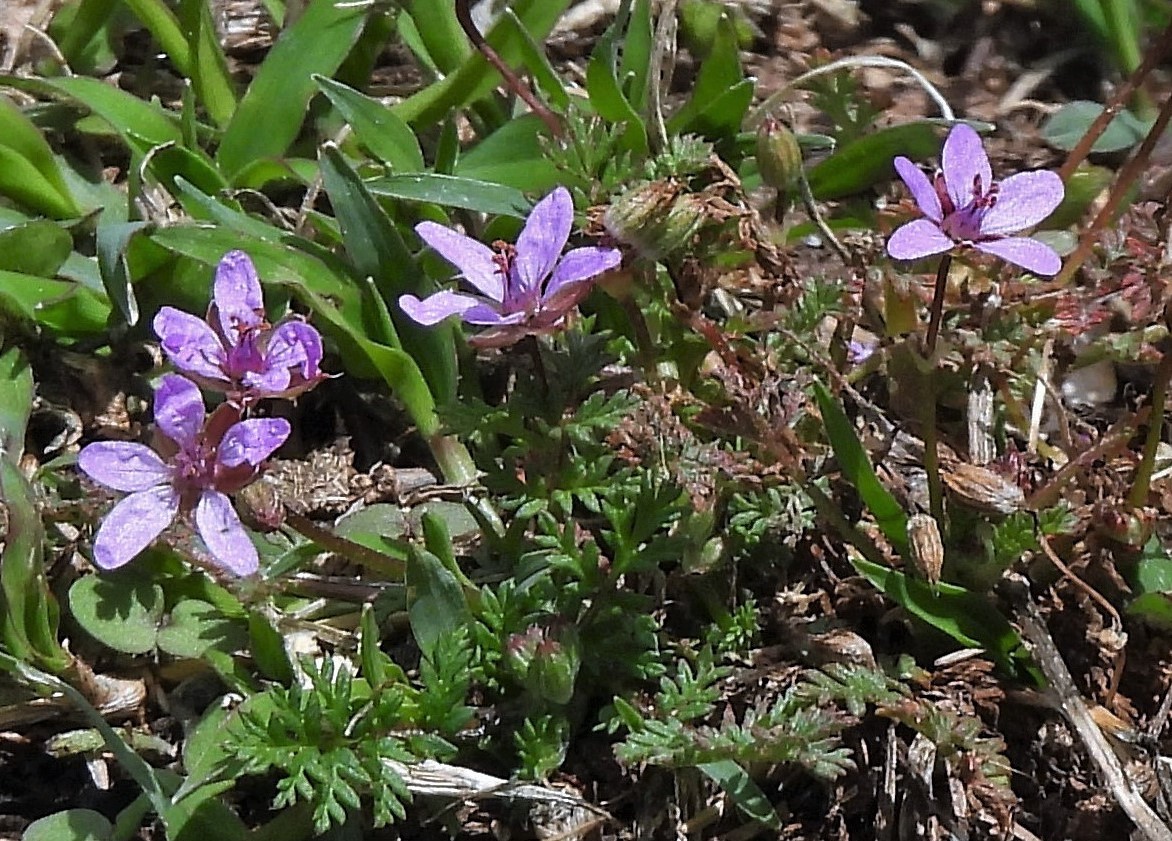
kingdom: Plantae
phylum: Tracheophyta
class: Magnoliopsida
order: Geraniales
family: Geraniaceae
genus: Erodium
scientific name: Erodium cicutarium
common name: Common stork's-bill
